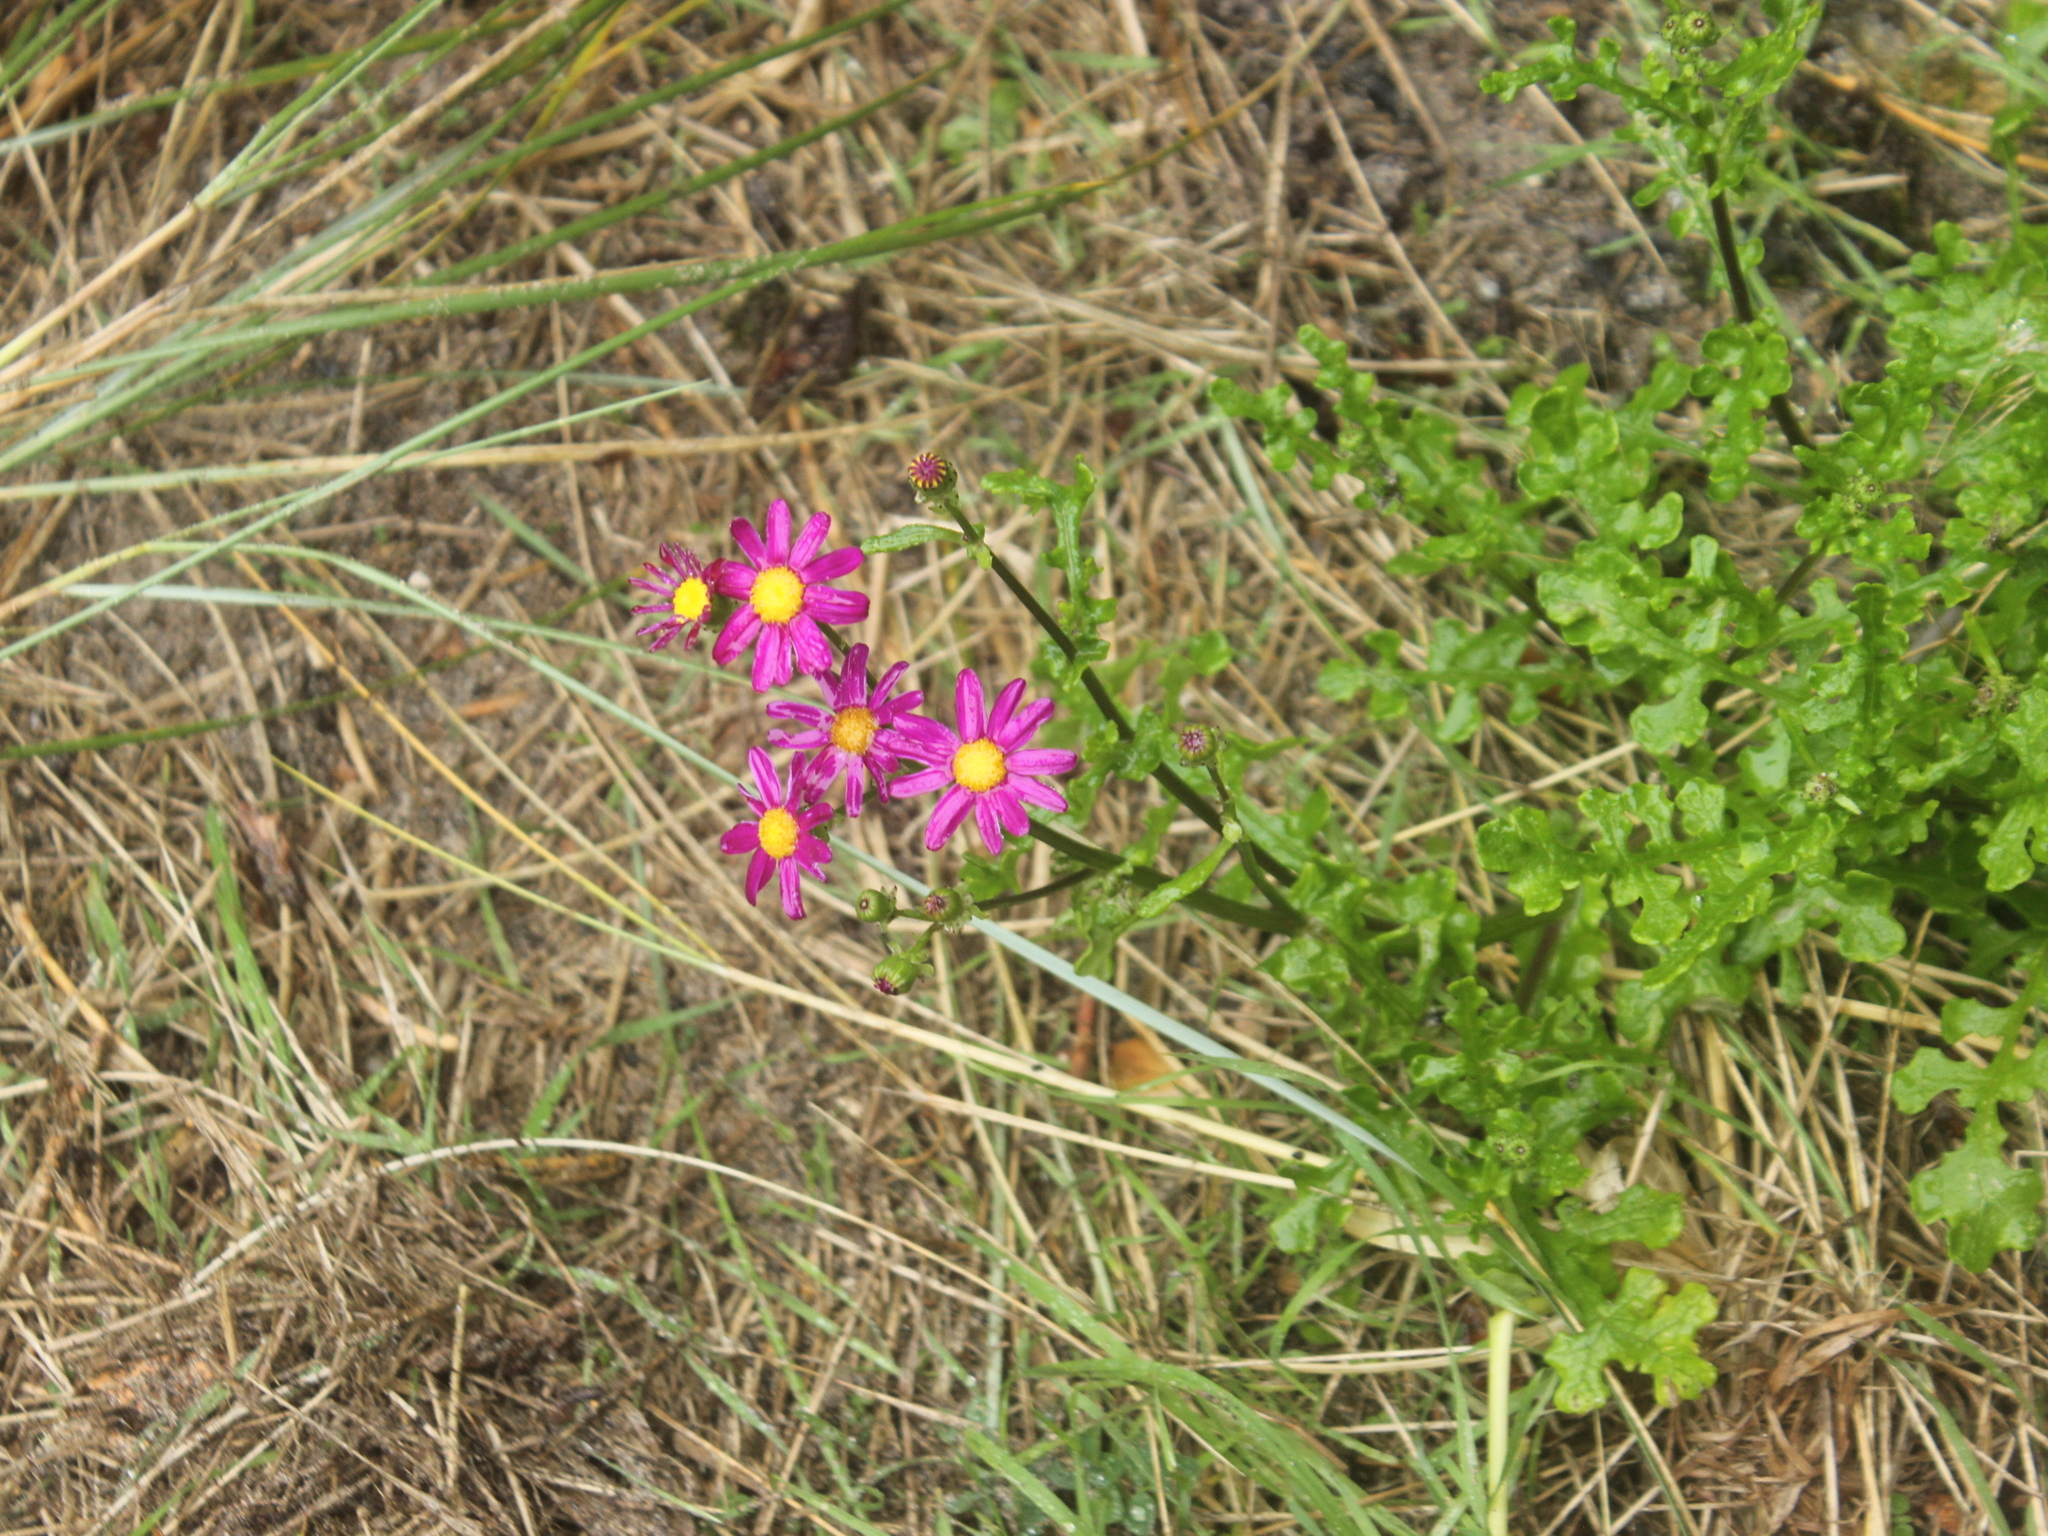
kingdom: Plantae
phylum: Tracheophyta
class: Magnoliopsida
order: Asterales
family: Asteraceae
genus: Senecio
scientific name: Senecio elegans
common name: Purple groundsel
